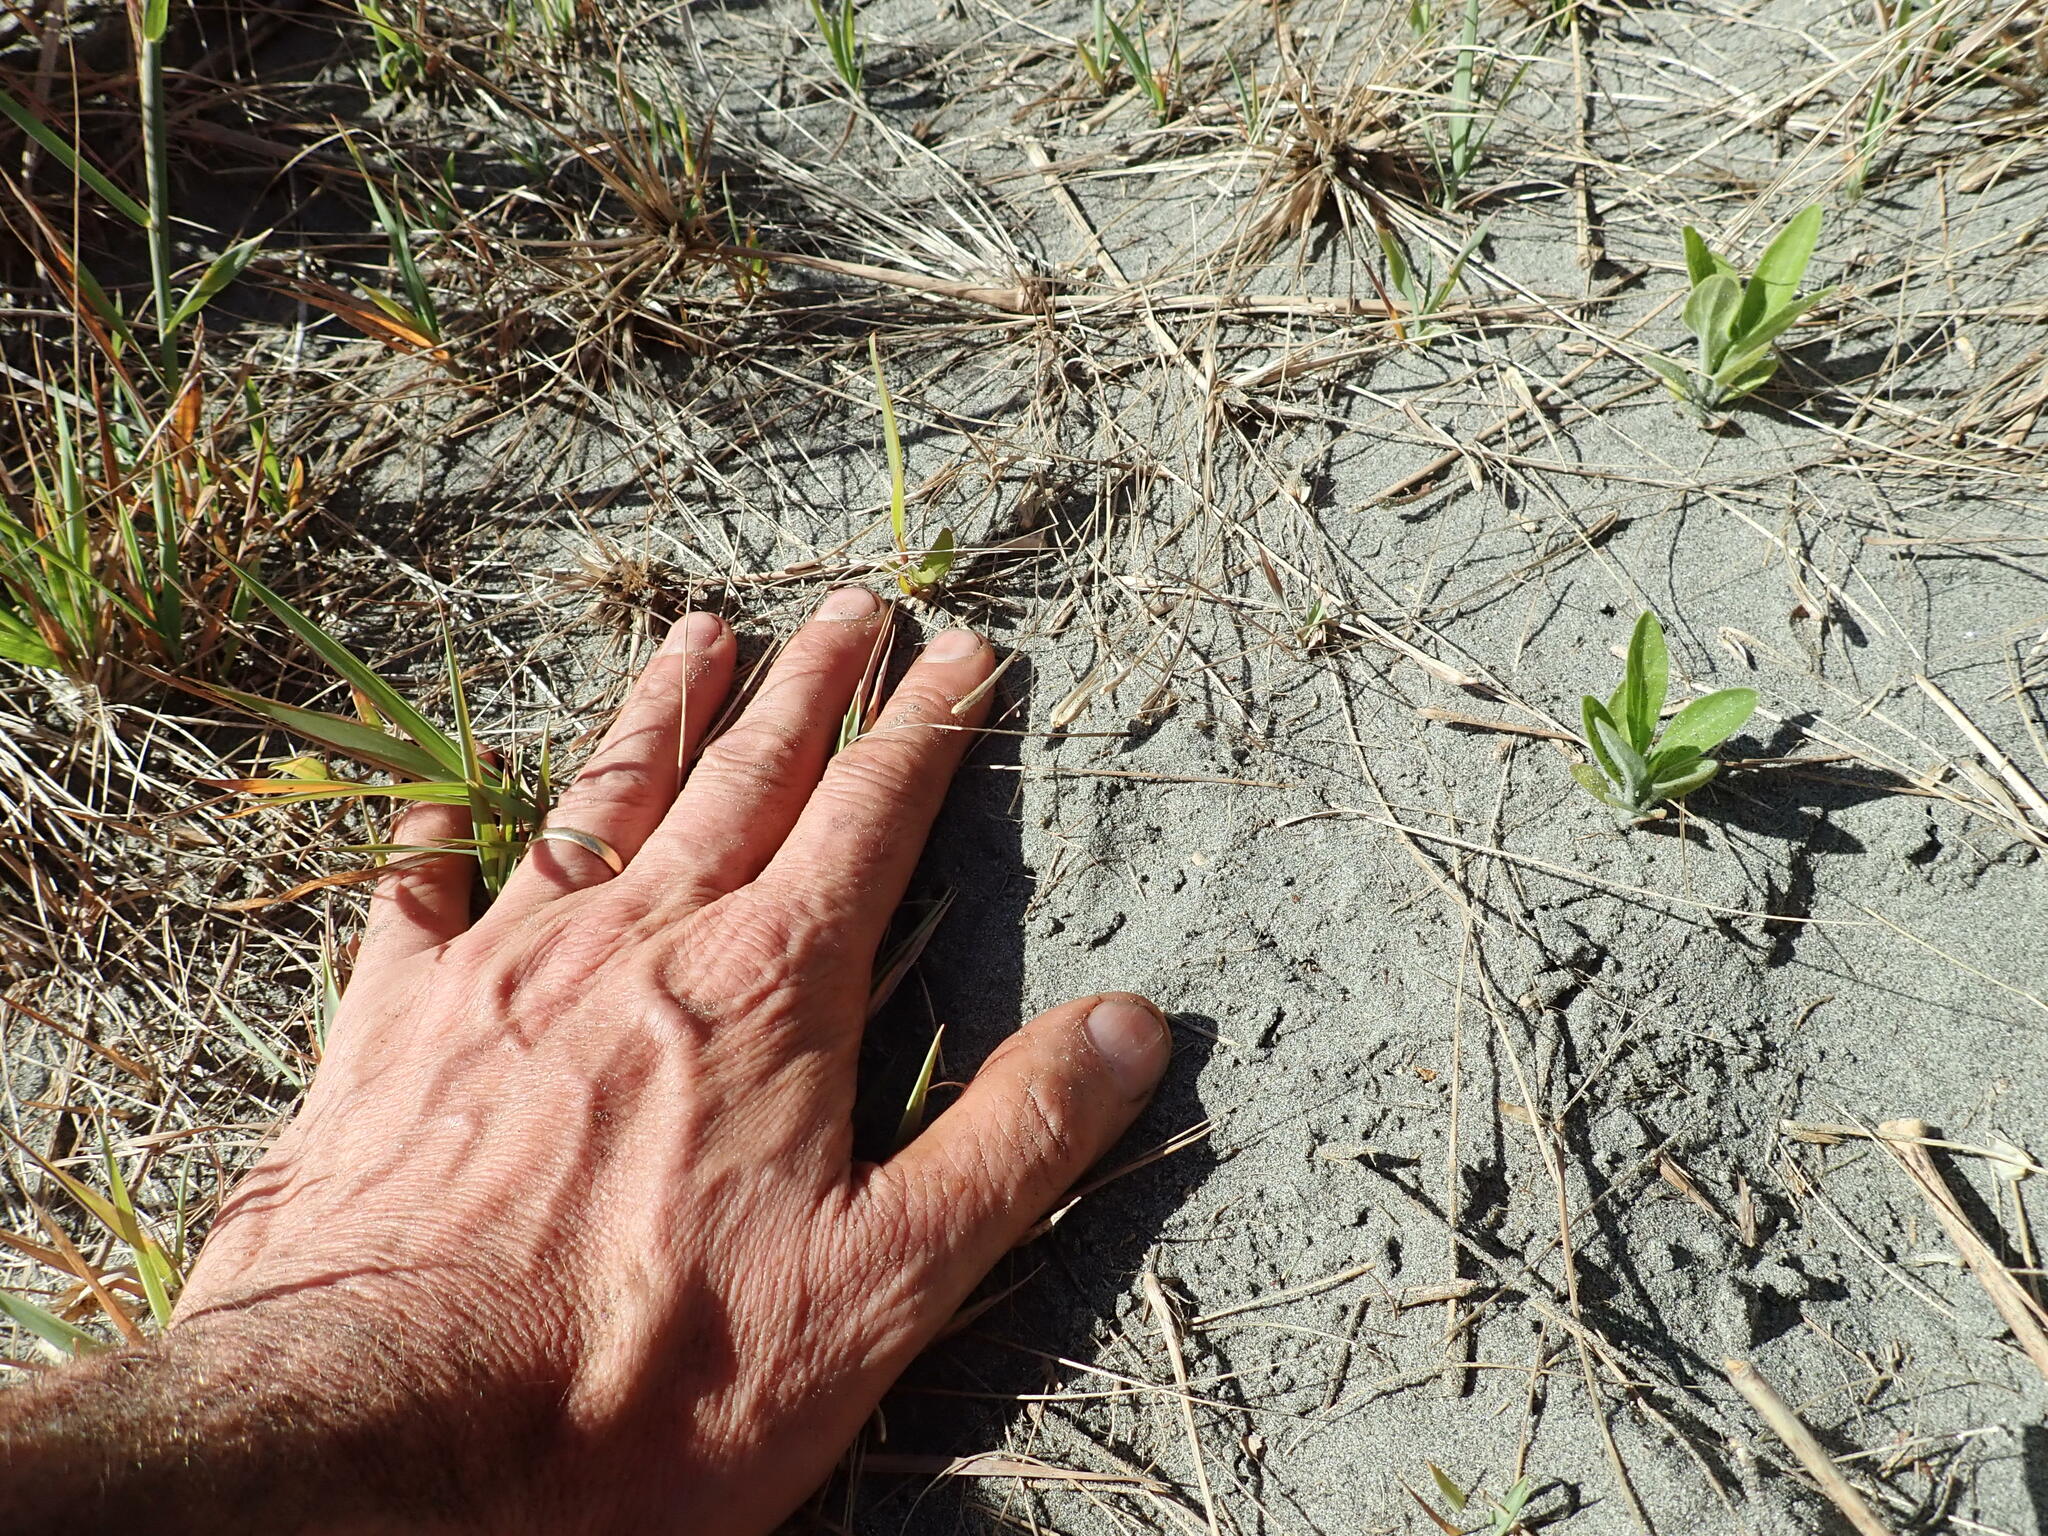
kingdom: Plantae
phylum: Tracheophyta
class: Magnoliopsida
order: Fabales
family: Fabaceae
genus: Acacia
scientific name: Acacia longifolia
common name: Sydney golden wattle
